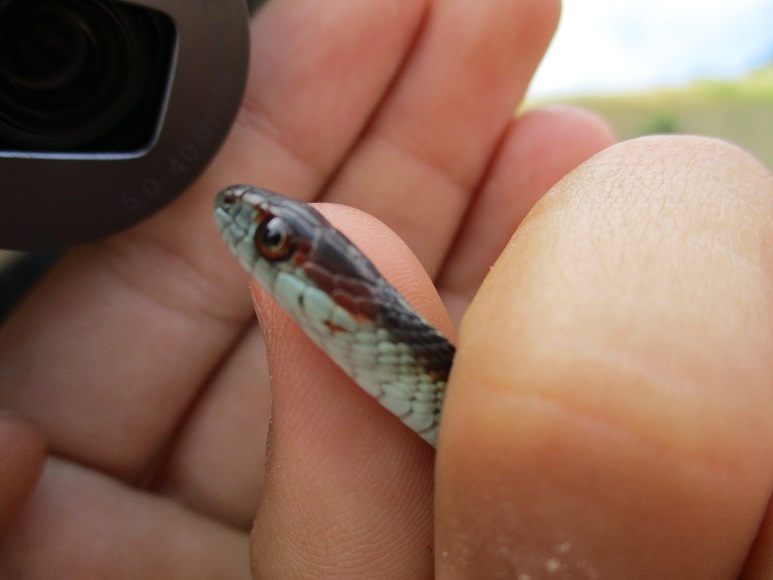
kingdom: Animalia
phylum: Chordata
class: Squamata
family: Colubridae
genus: Thamnophis
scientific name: Thamnophis sirtalis
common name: Common garter snake
